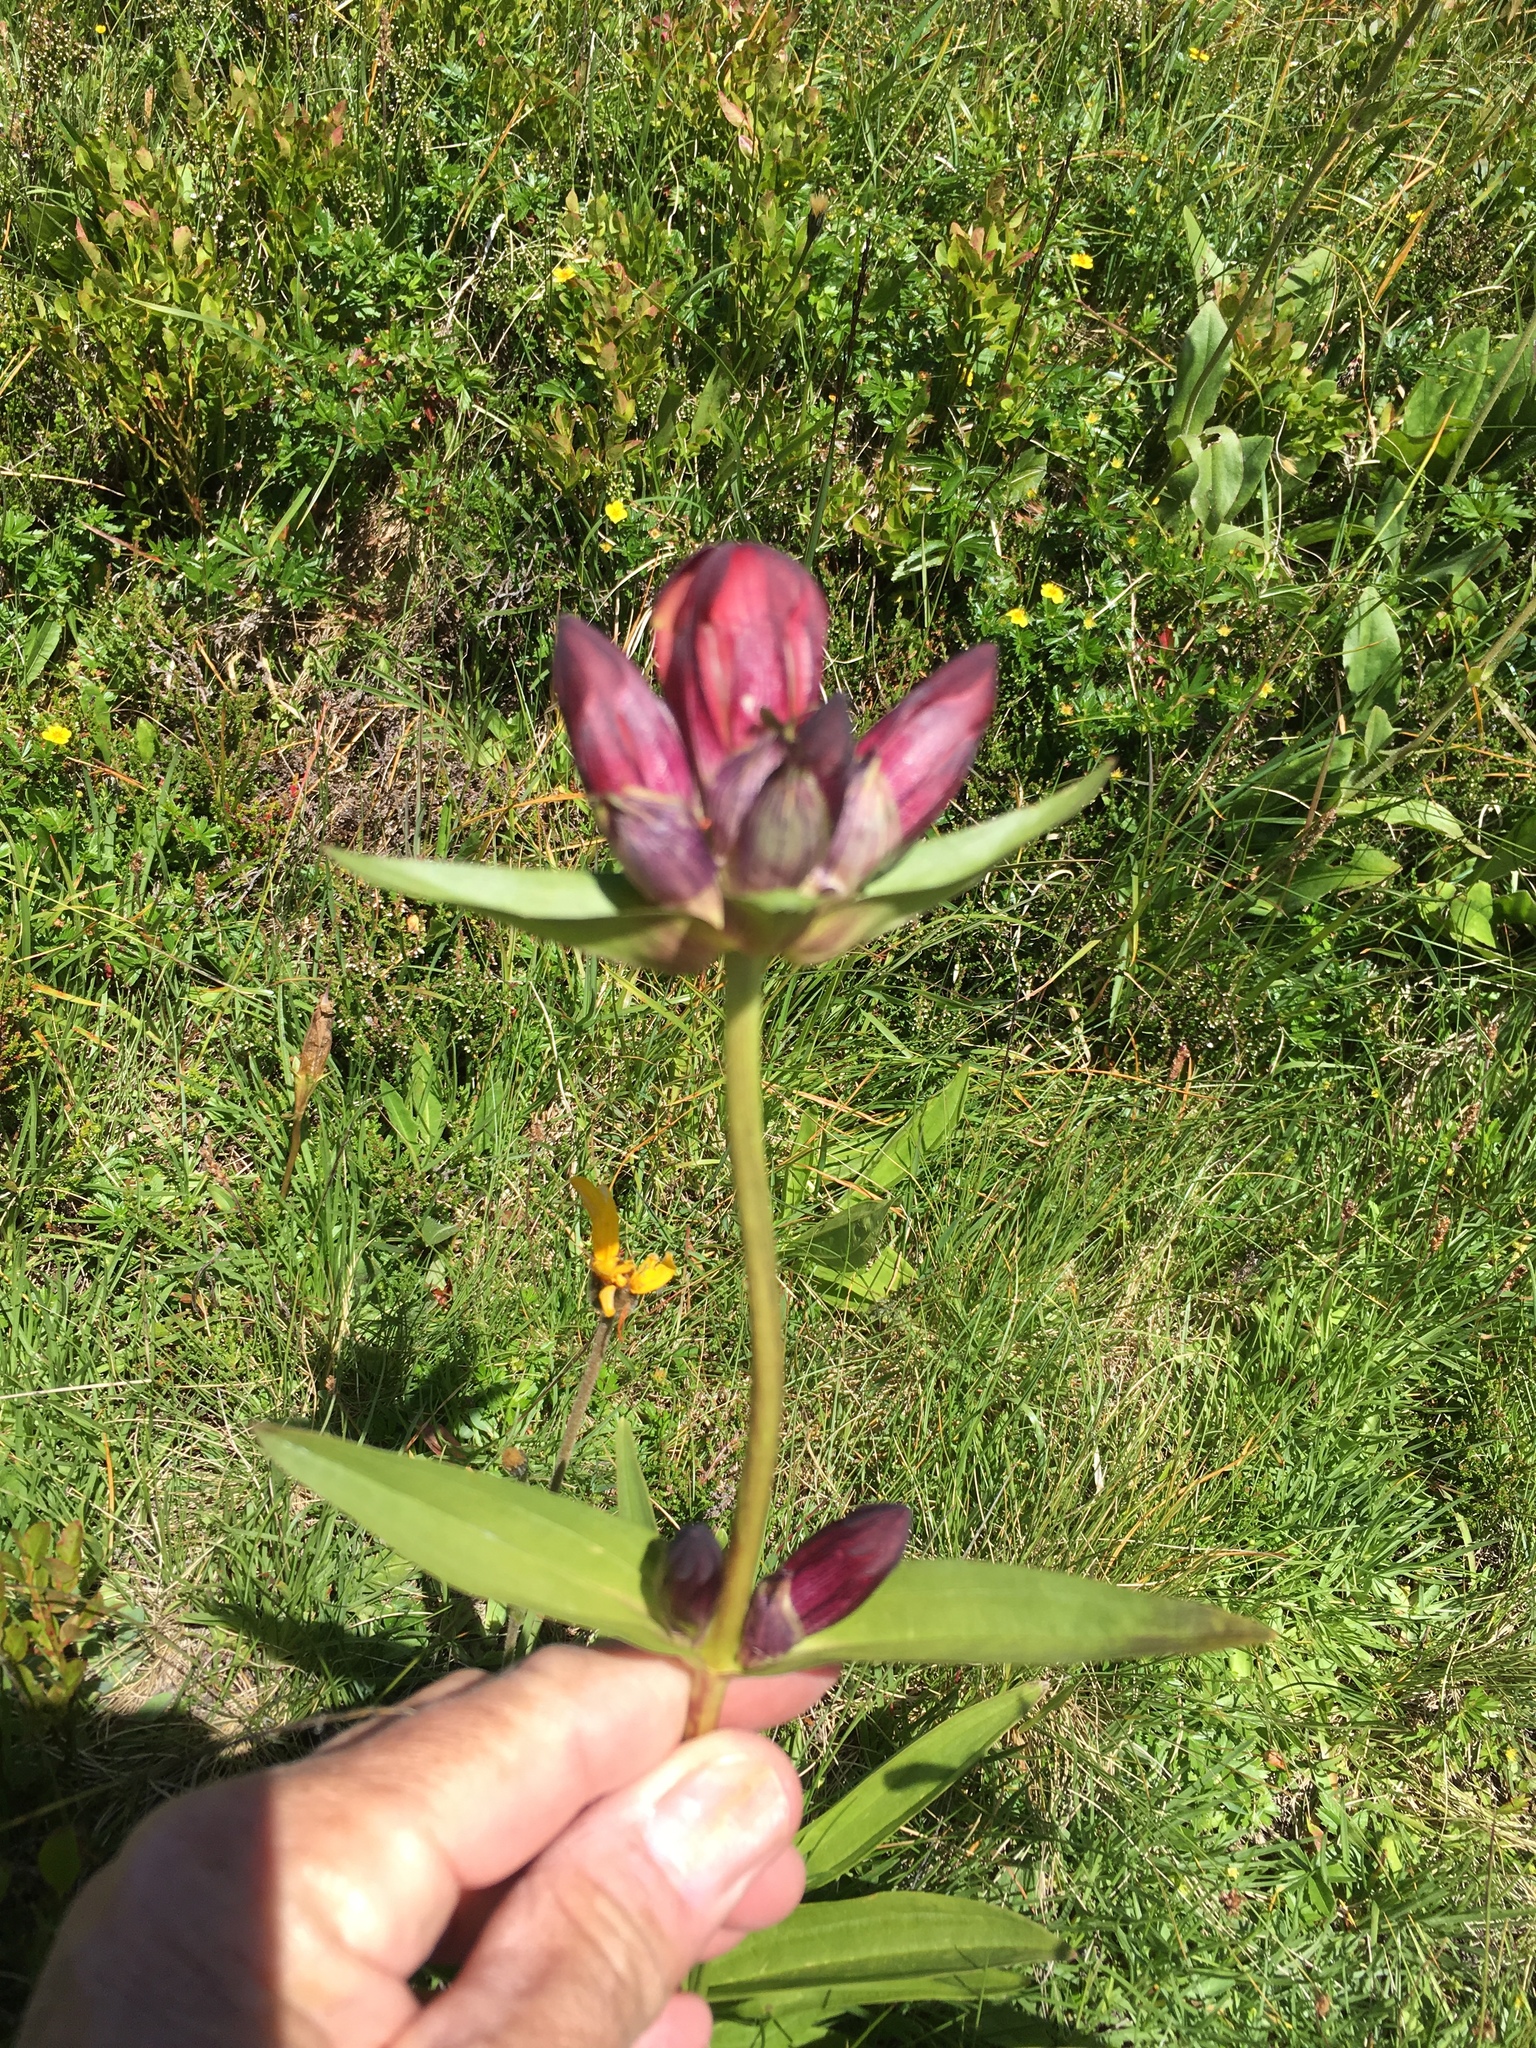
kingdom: Plantae
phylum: Tracheophyta
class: Magnoliopsida
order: Gentianales
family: Gentianaceae
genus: Gentiana
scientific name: Gentiana purpurea
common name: Purple gentian
